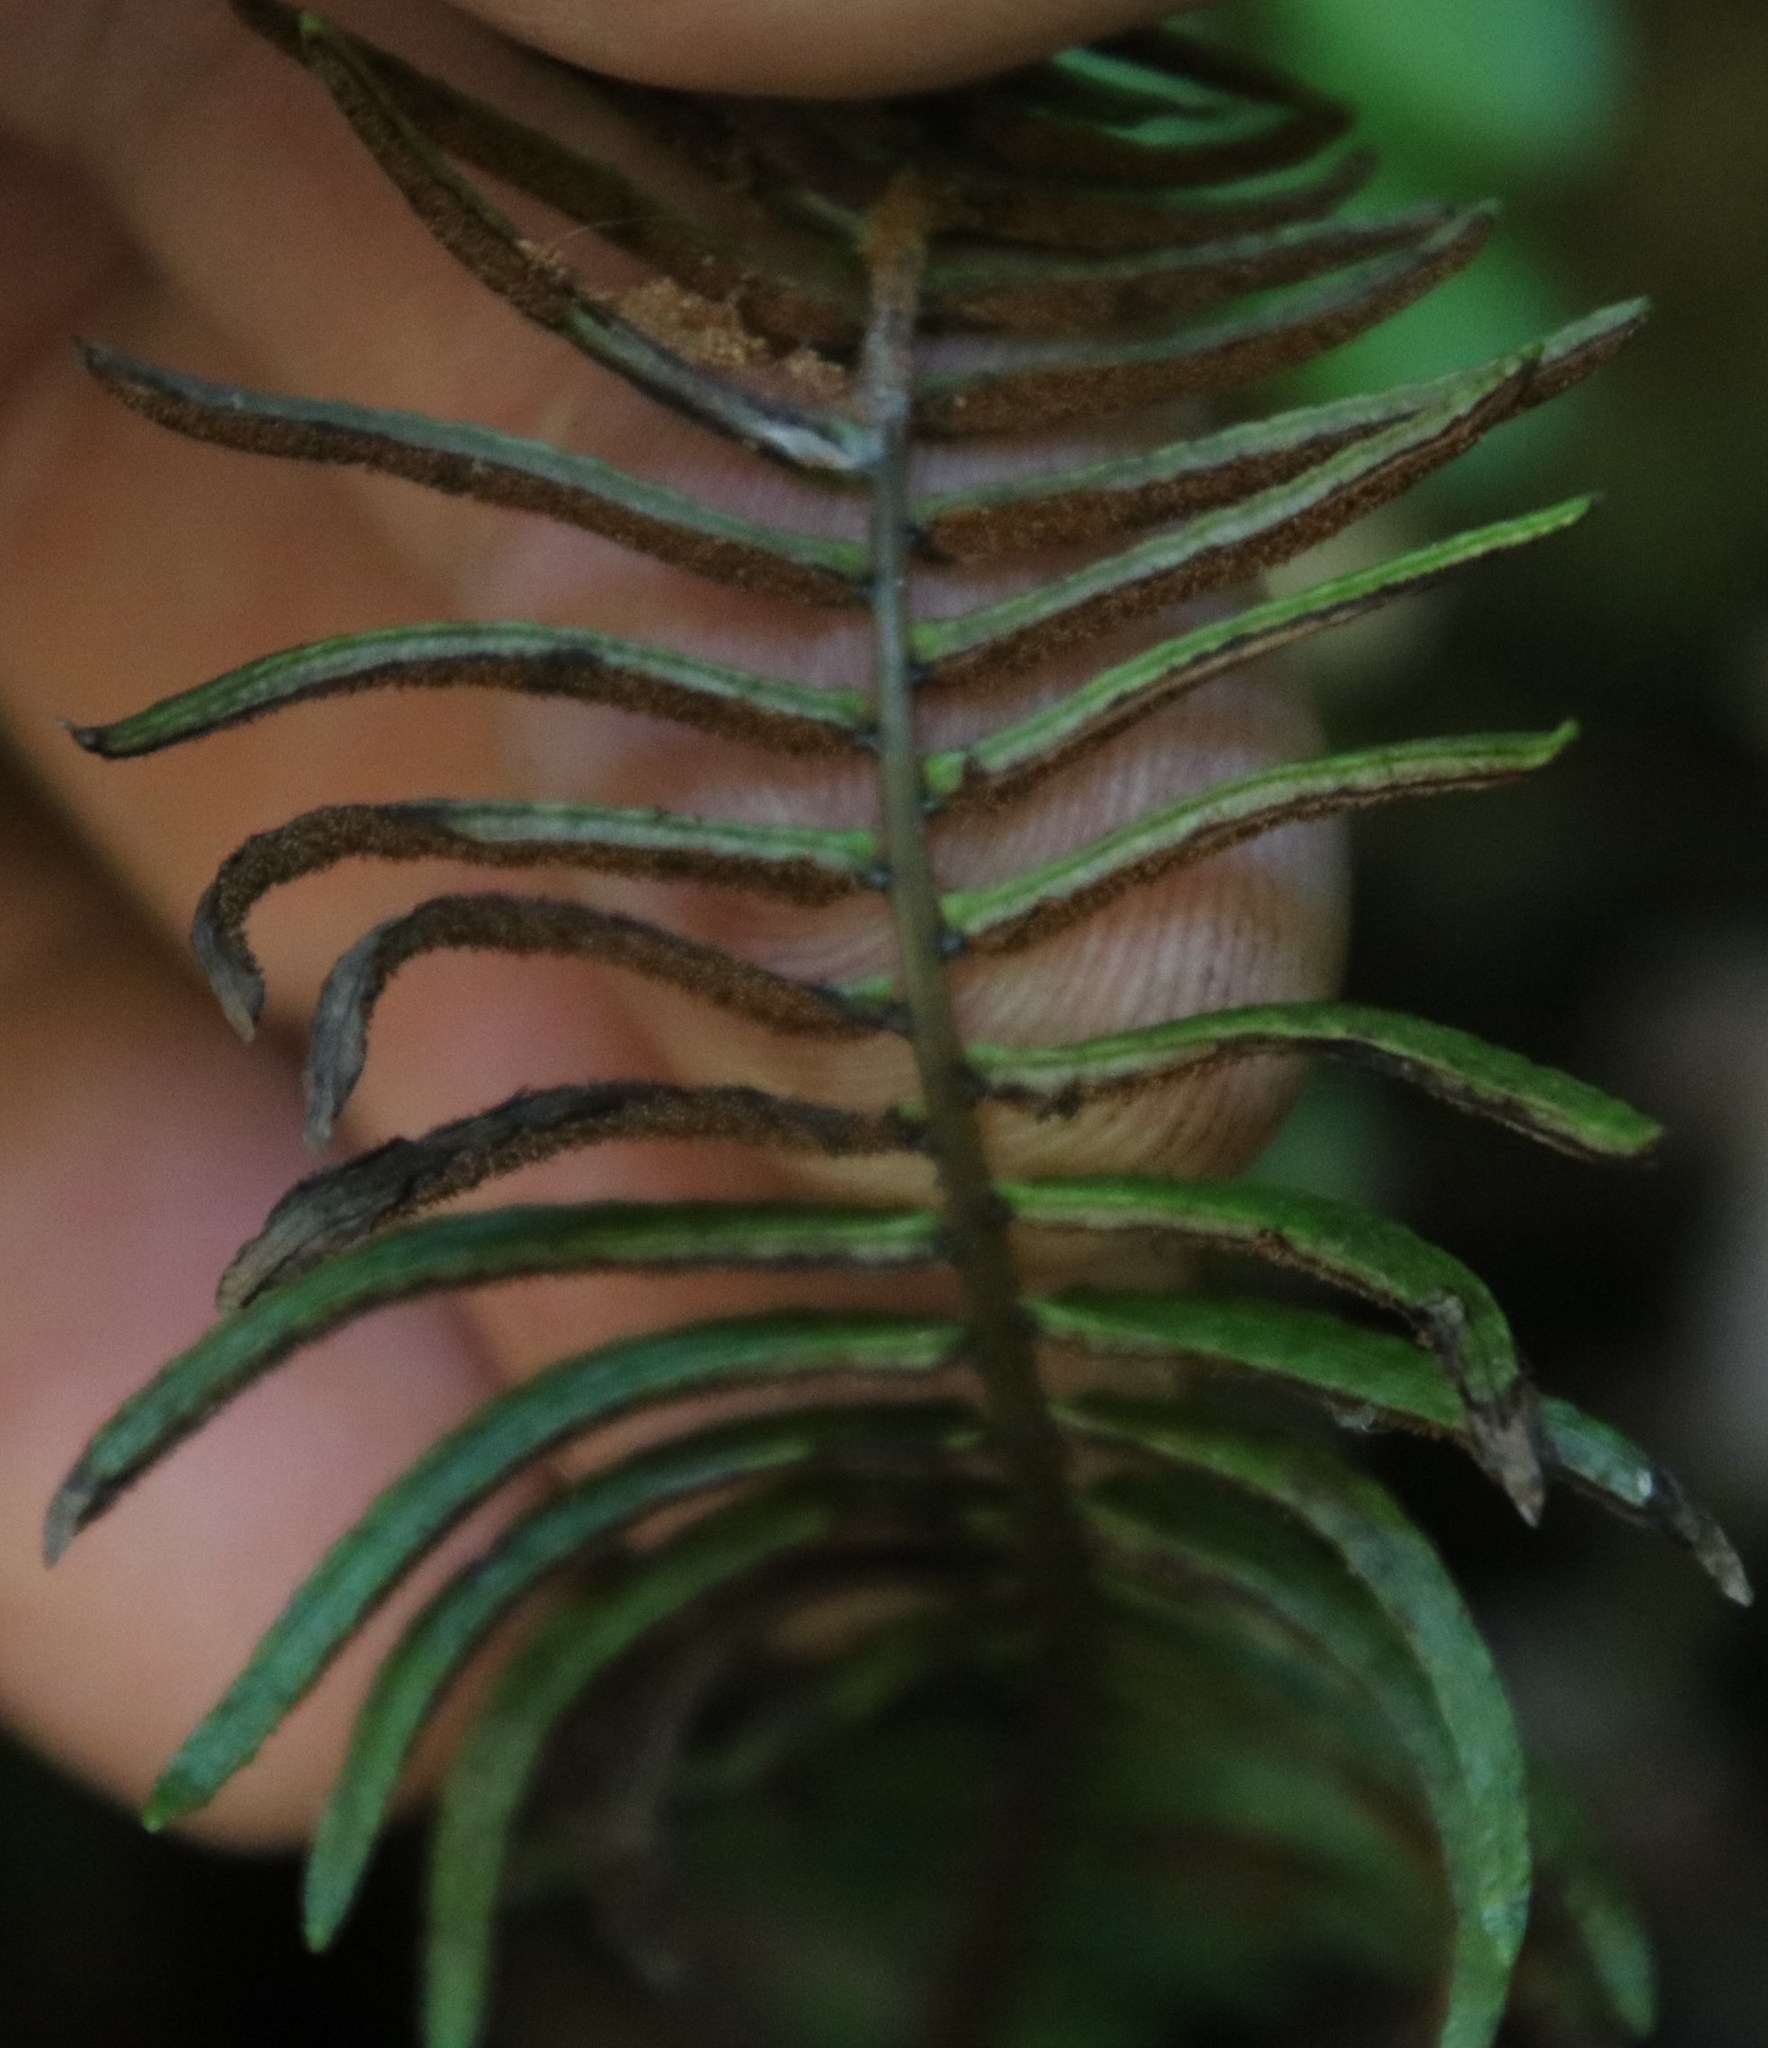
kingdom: Plantae
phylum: Tracheophyta
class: Polypodiopsida
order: Polypodiales
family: Blechnaceae
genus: Blechnum
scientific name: Blechnum punctulatum
